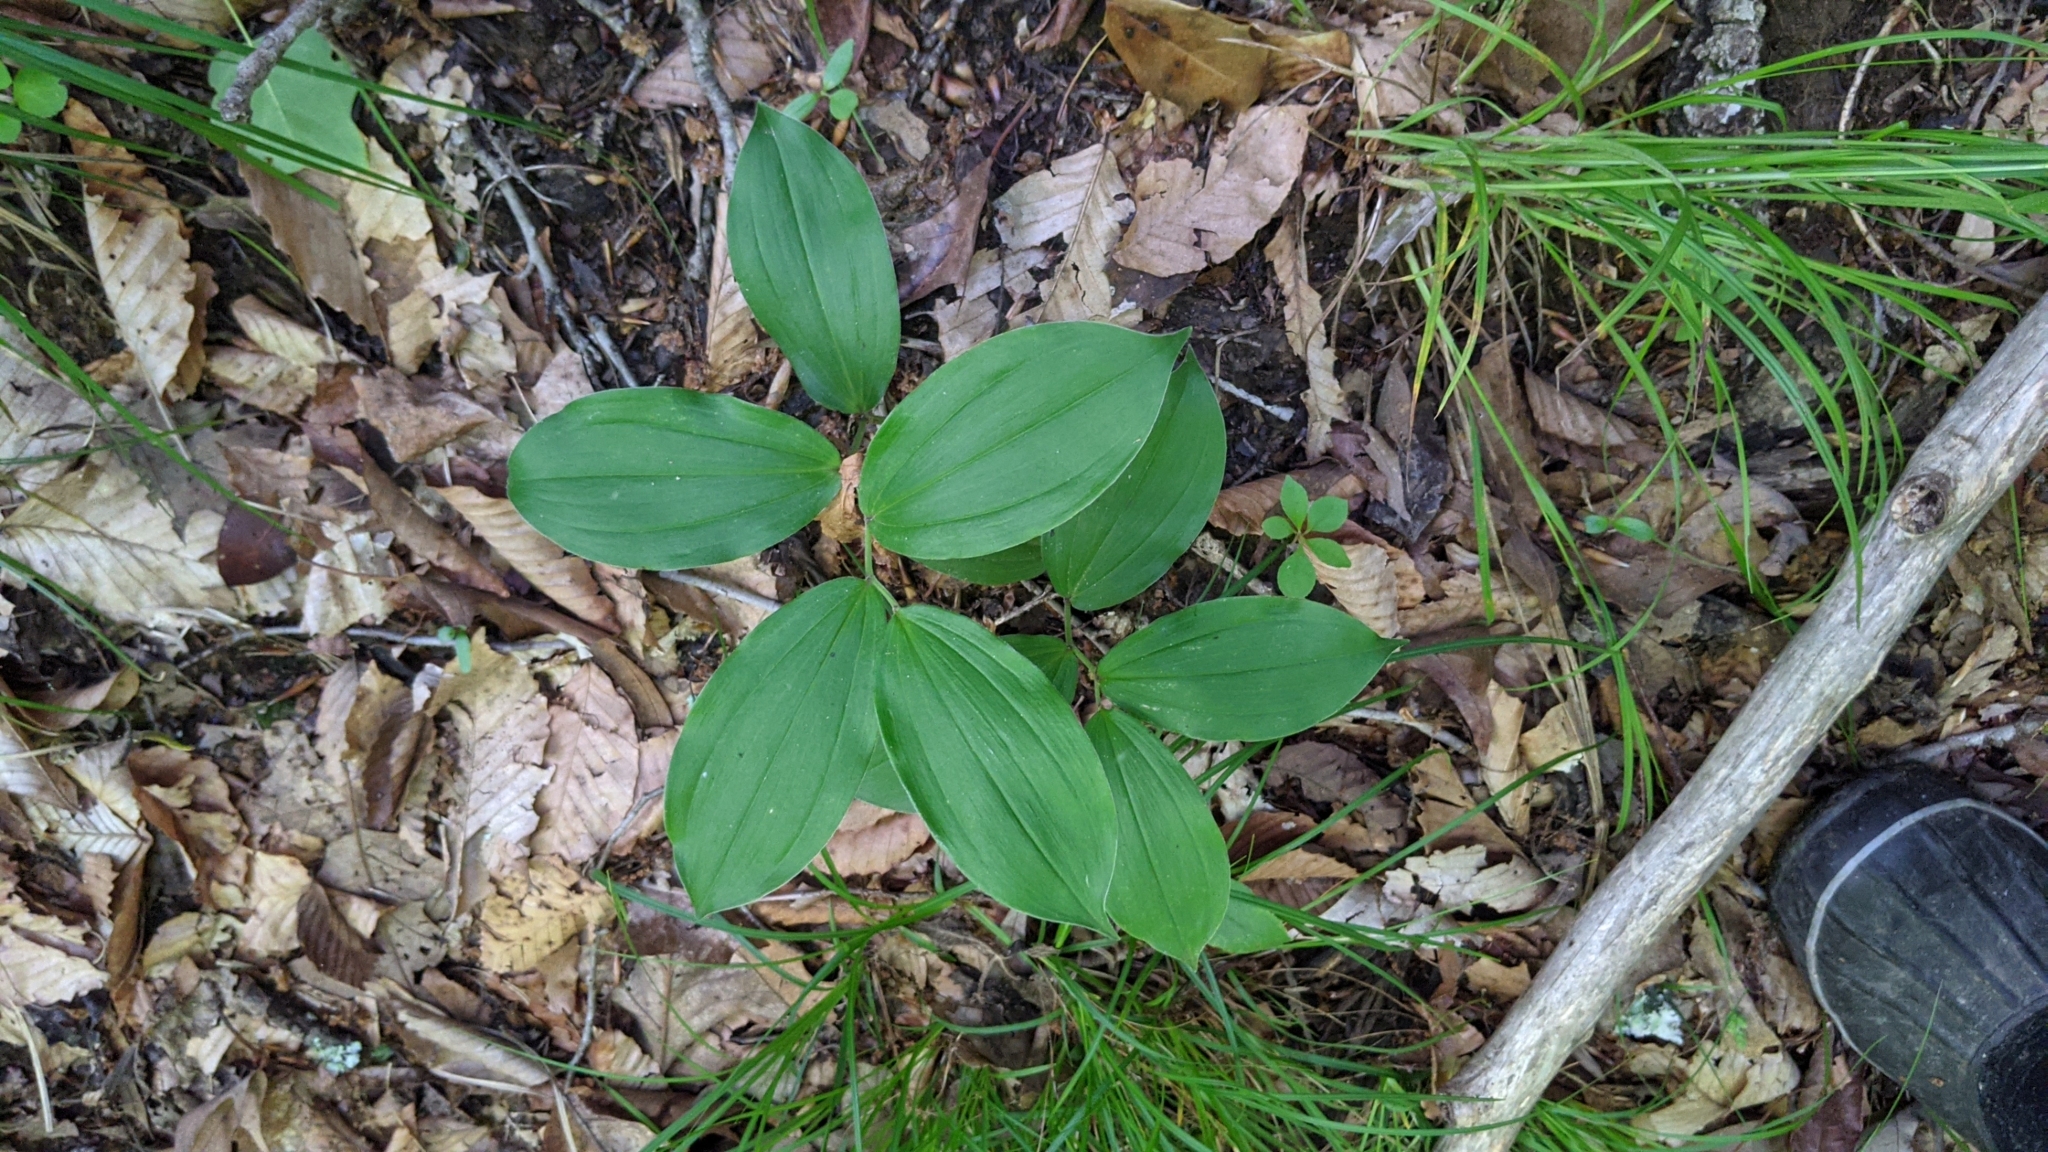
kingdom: Plantae
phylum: Tracheophyta
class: Liliopsida
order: Asparagales
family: Asparagaceae
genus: Maianthemum
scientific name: Maianthemum racemosum
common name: False spikenard
